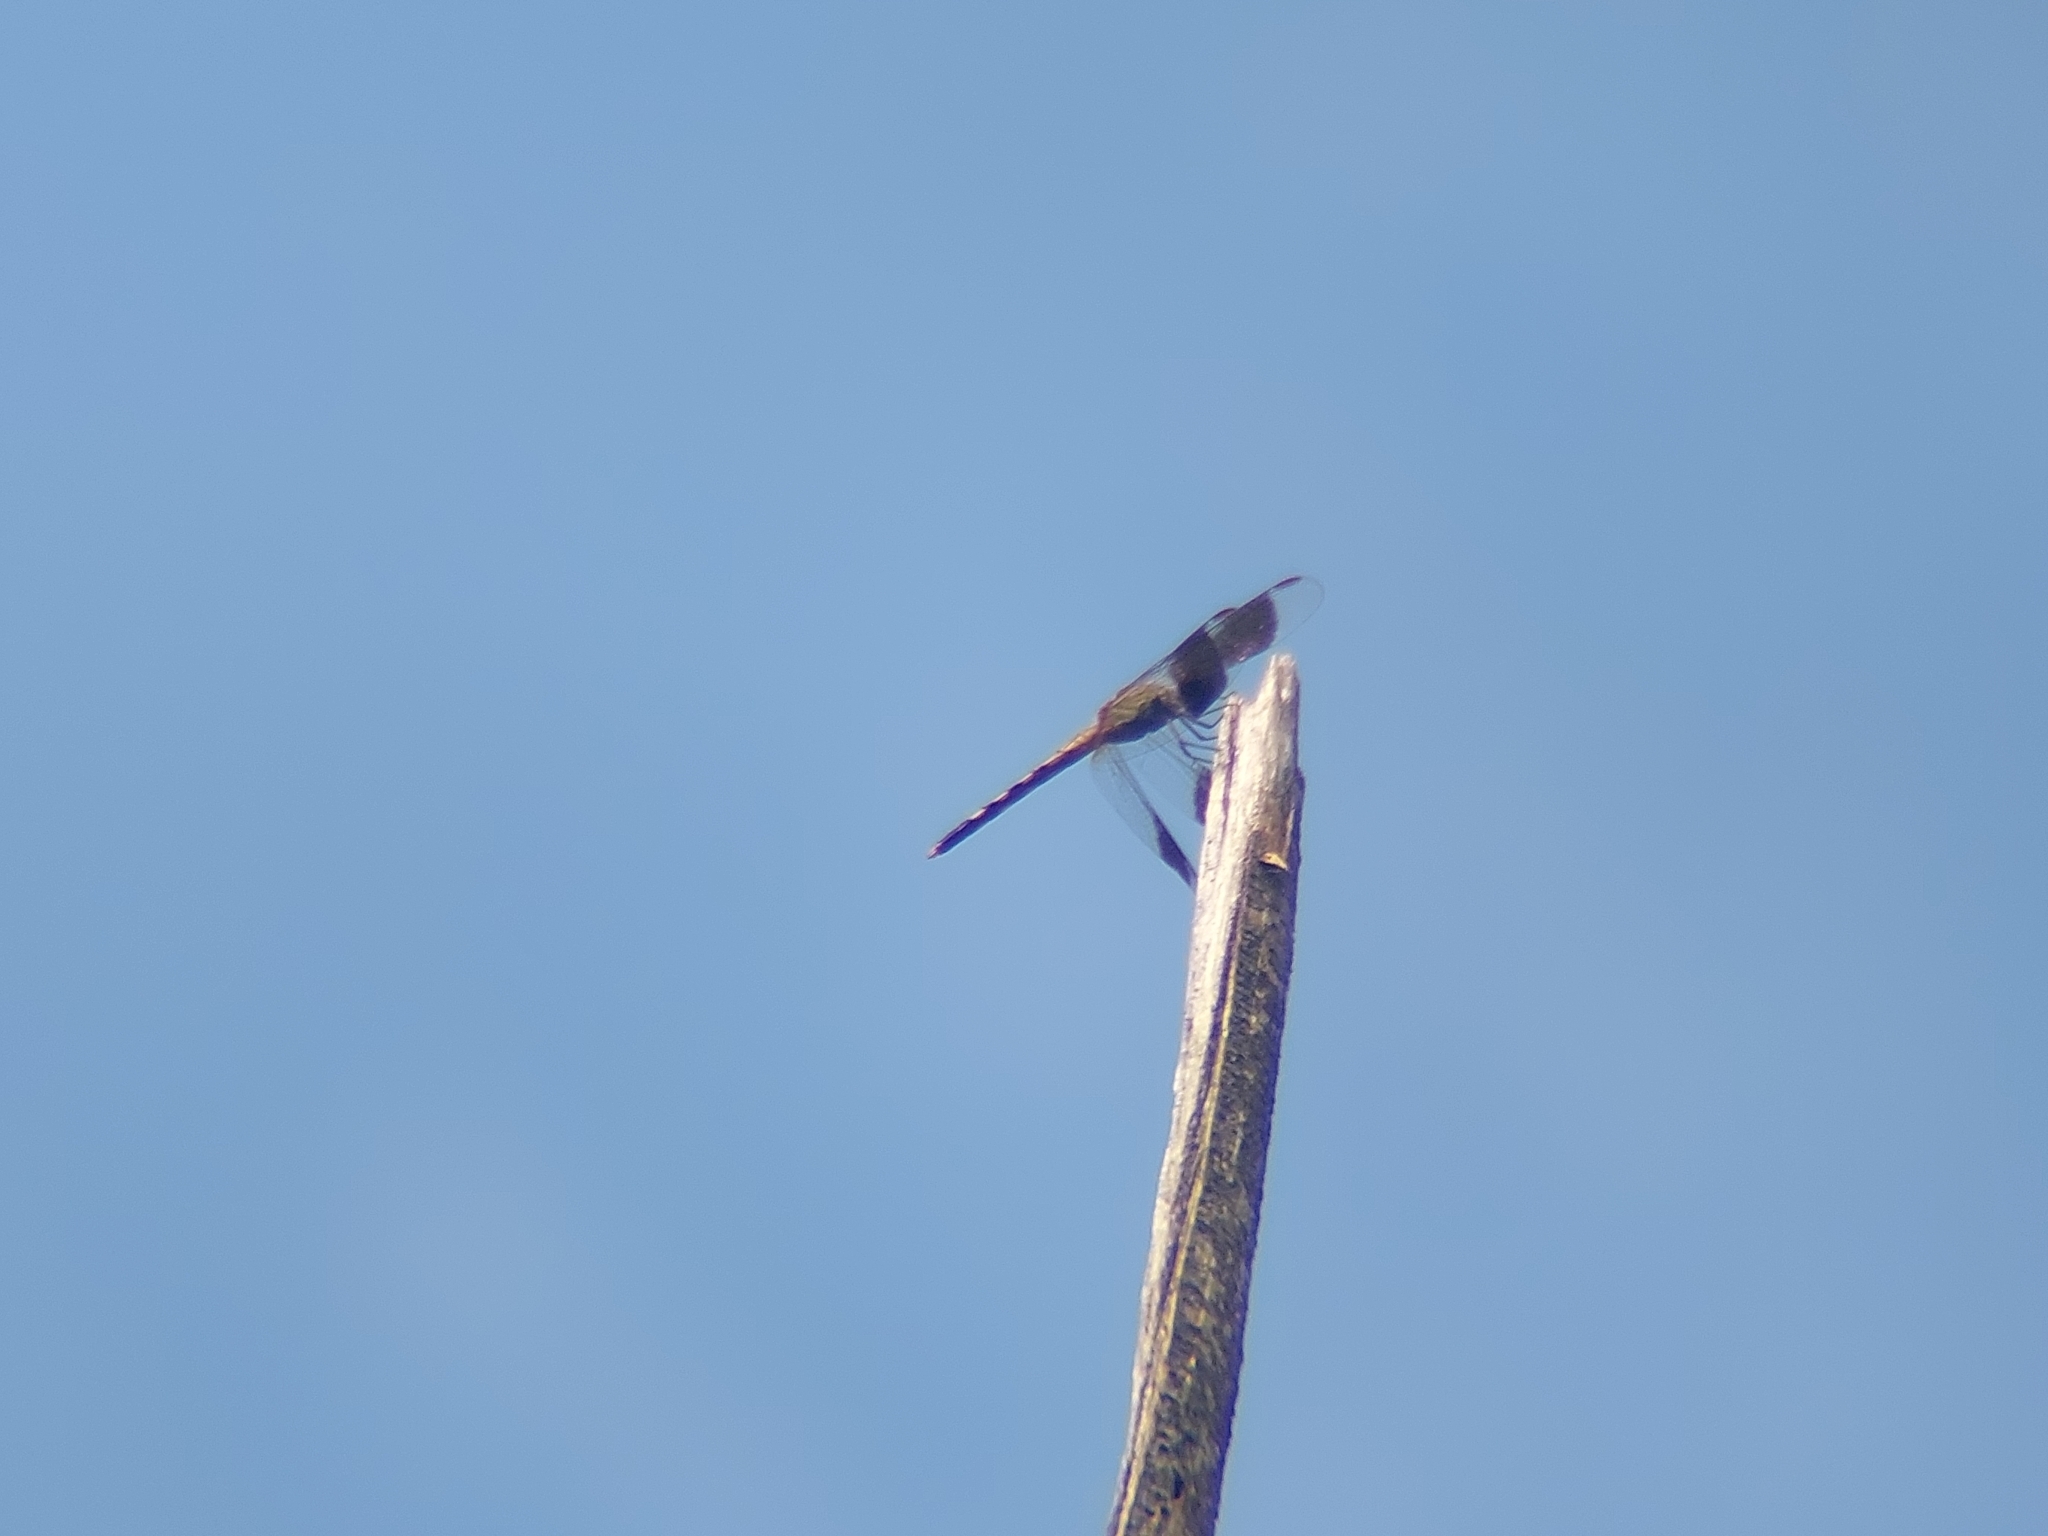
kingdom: Animalia
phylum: Arthropoda
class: Insecta
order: Odonata
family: Libellulidae
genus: Erythrodiplax
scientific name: Erythrodiplax umbrata
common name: Band-winged dragonlet
